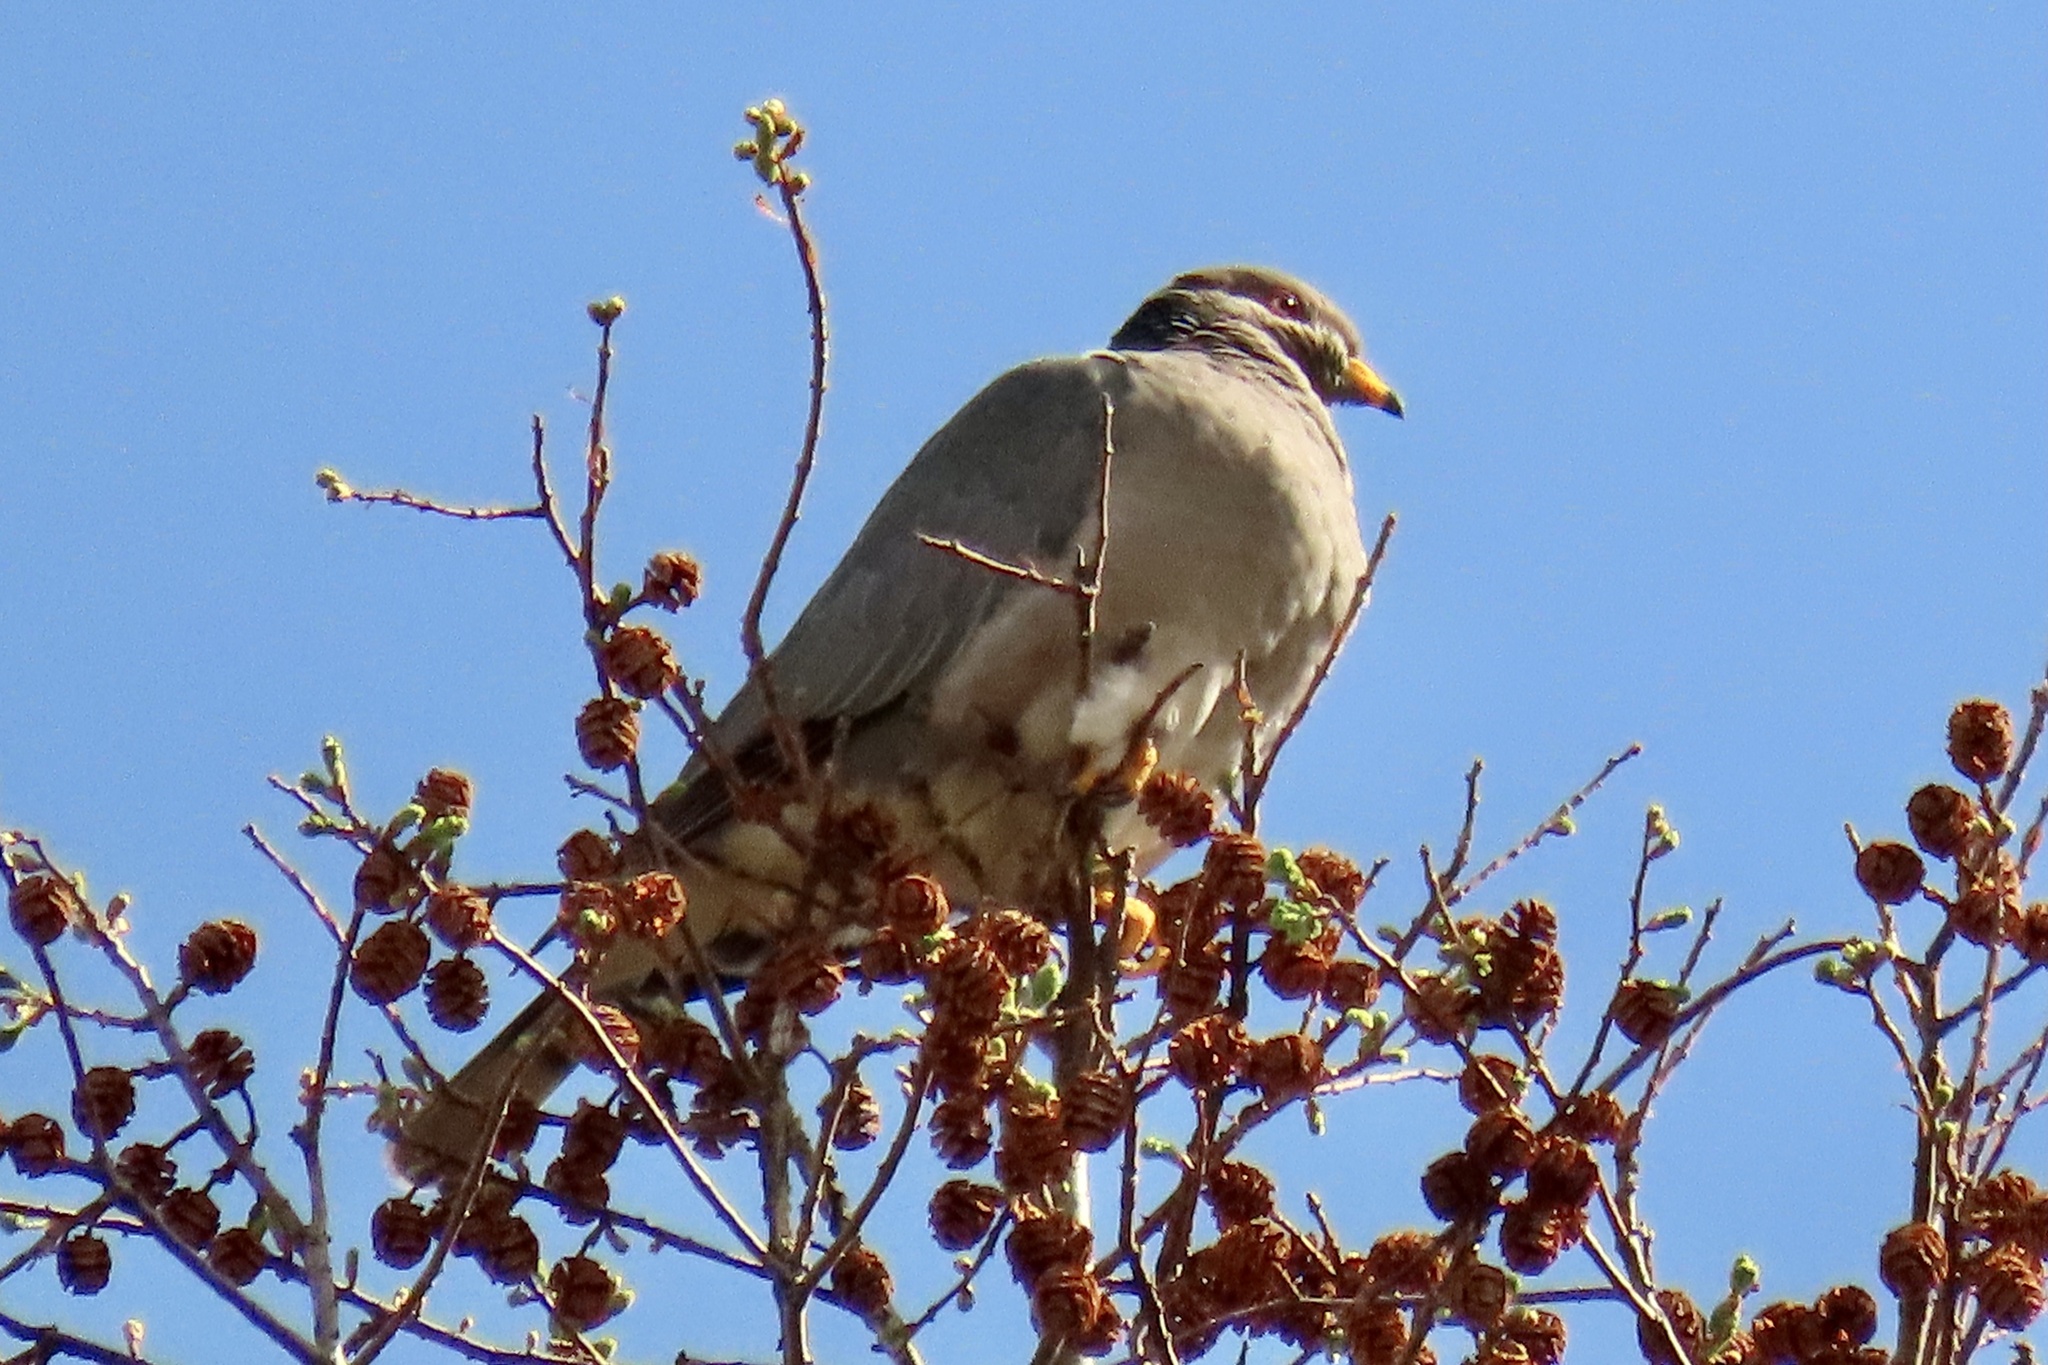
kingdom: Animalia
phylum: Chordata
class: Aves
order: Columbiformes
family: Columbidae
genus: Patagioenas
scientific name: Patagioenas fasciata
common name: Band-tailed pigeon
